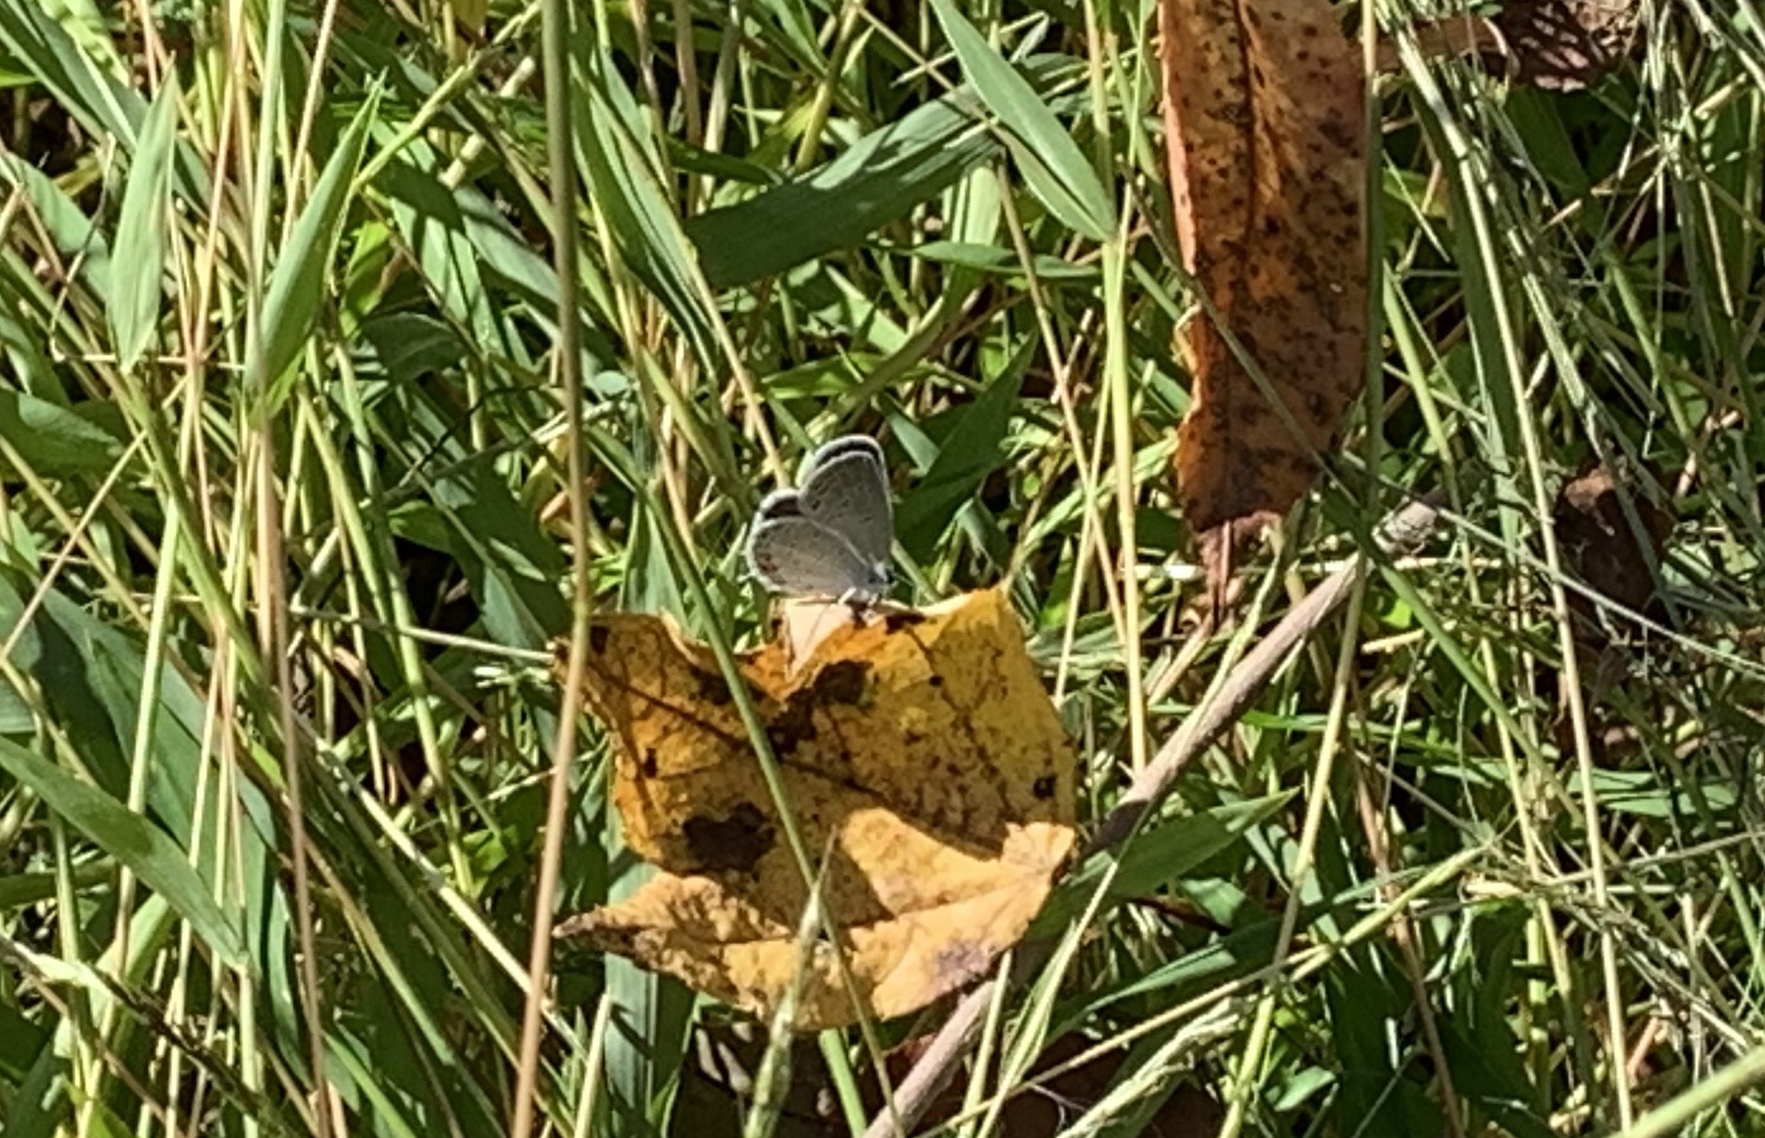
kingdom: Animalia
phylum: Arthropoda
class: Insecta
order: Lepidoptera
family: Lycaenidae
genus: Elkalyce
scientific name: Elkalyce comyntas
